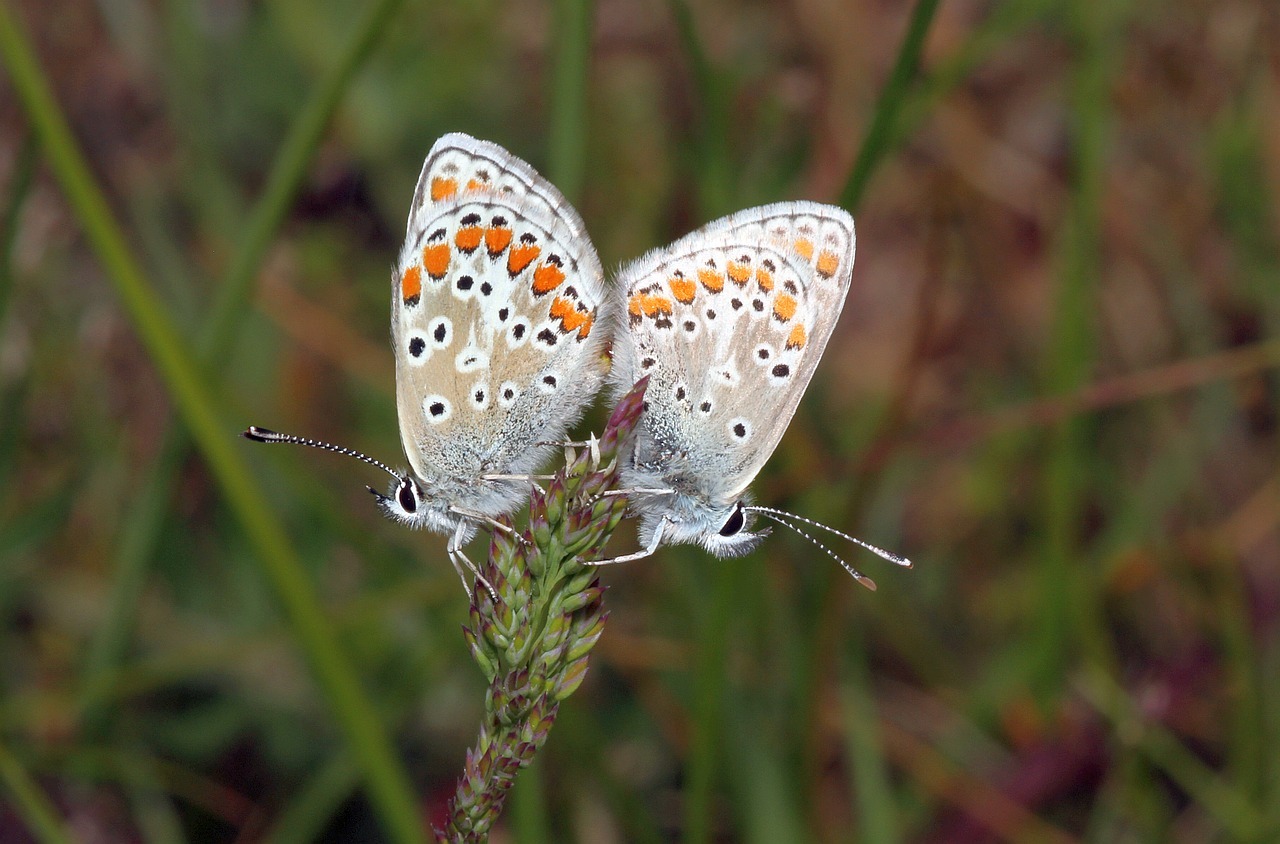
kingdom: Animalia
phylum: Arthropoda
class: Insecta
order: Lepidoptera
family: Lycaenidae
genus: Aricia
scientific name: Aricia agestis
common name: Brown argus
